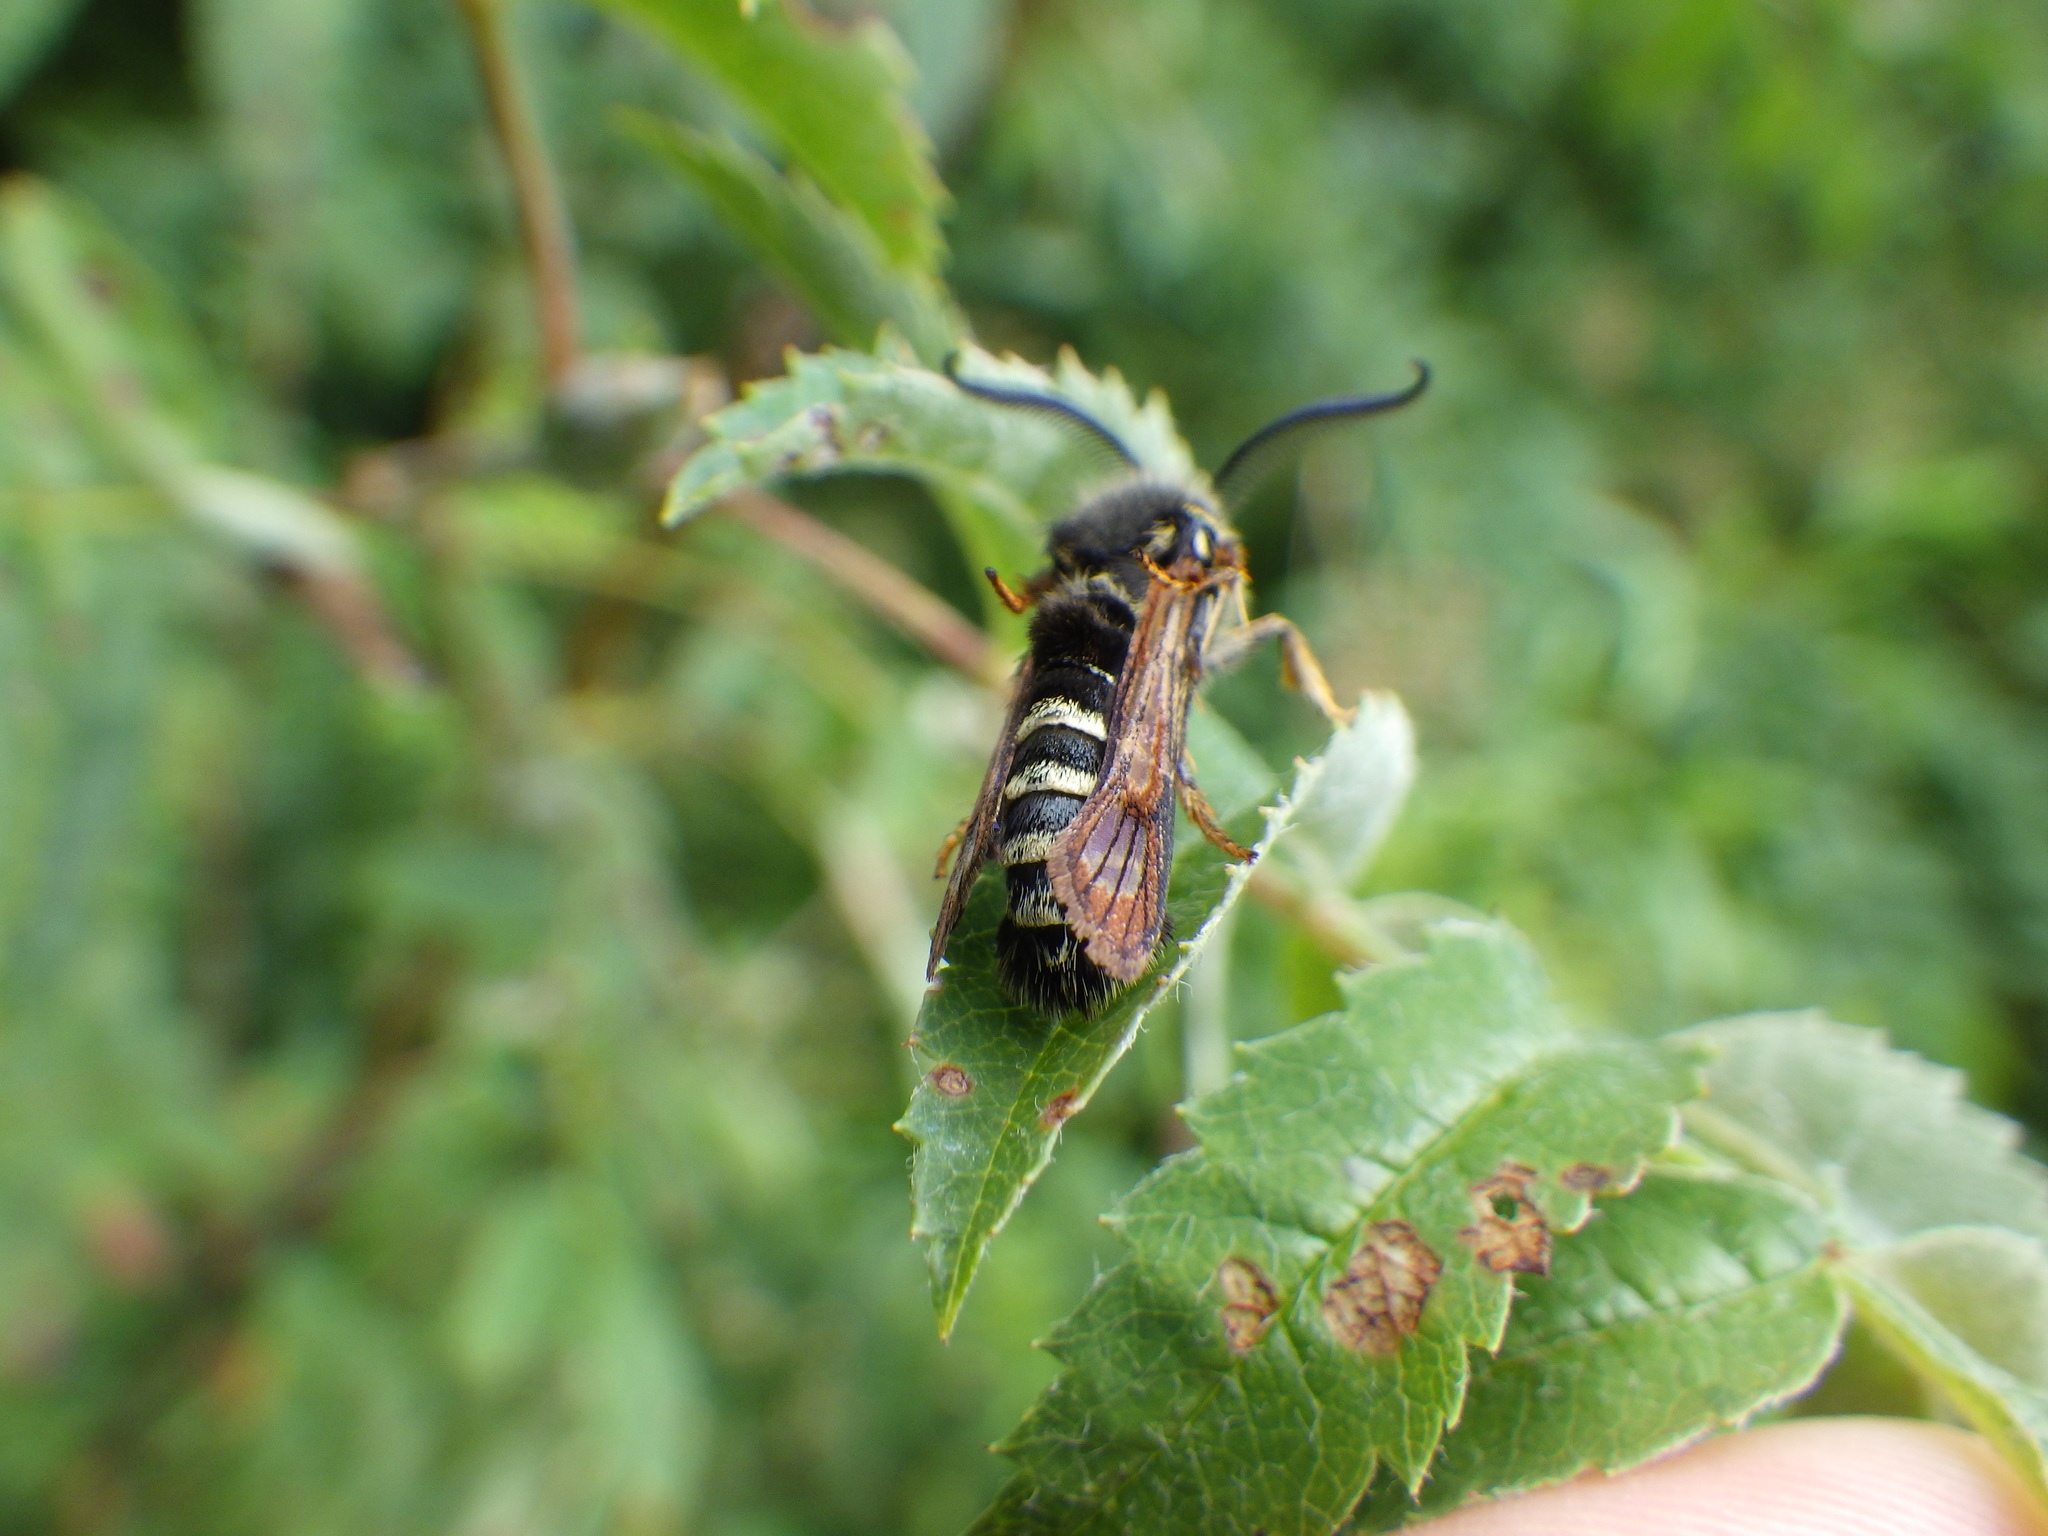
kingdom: Animalia
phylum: Arthropoda
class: Insecta
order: Lepidoptera
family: Sesiidae
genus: Pennisetia
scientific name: Pennisetia marginatum
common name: Raspberry crown borer
